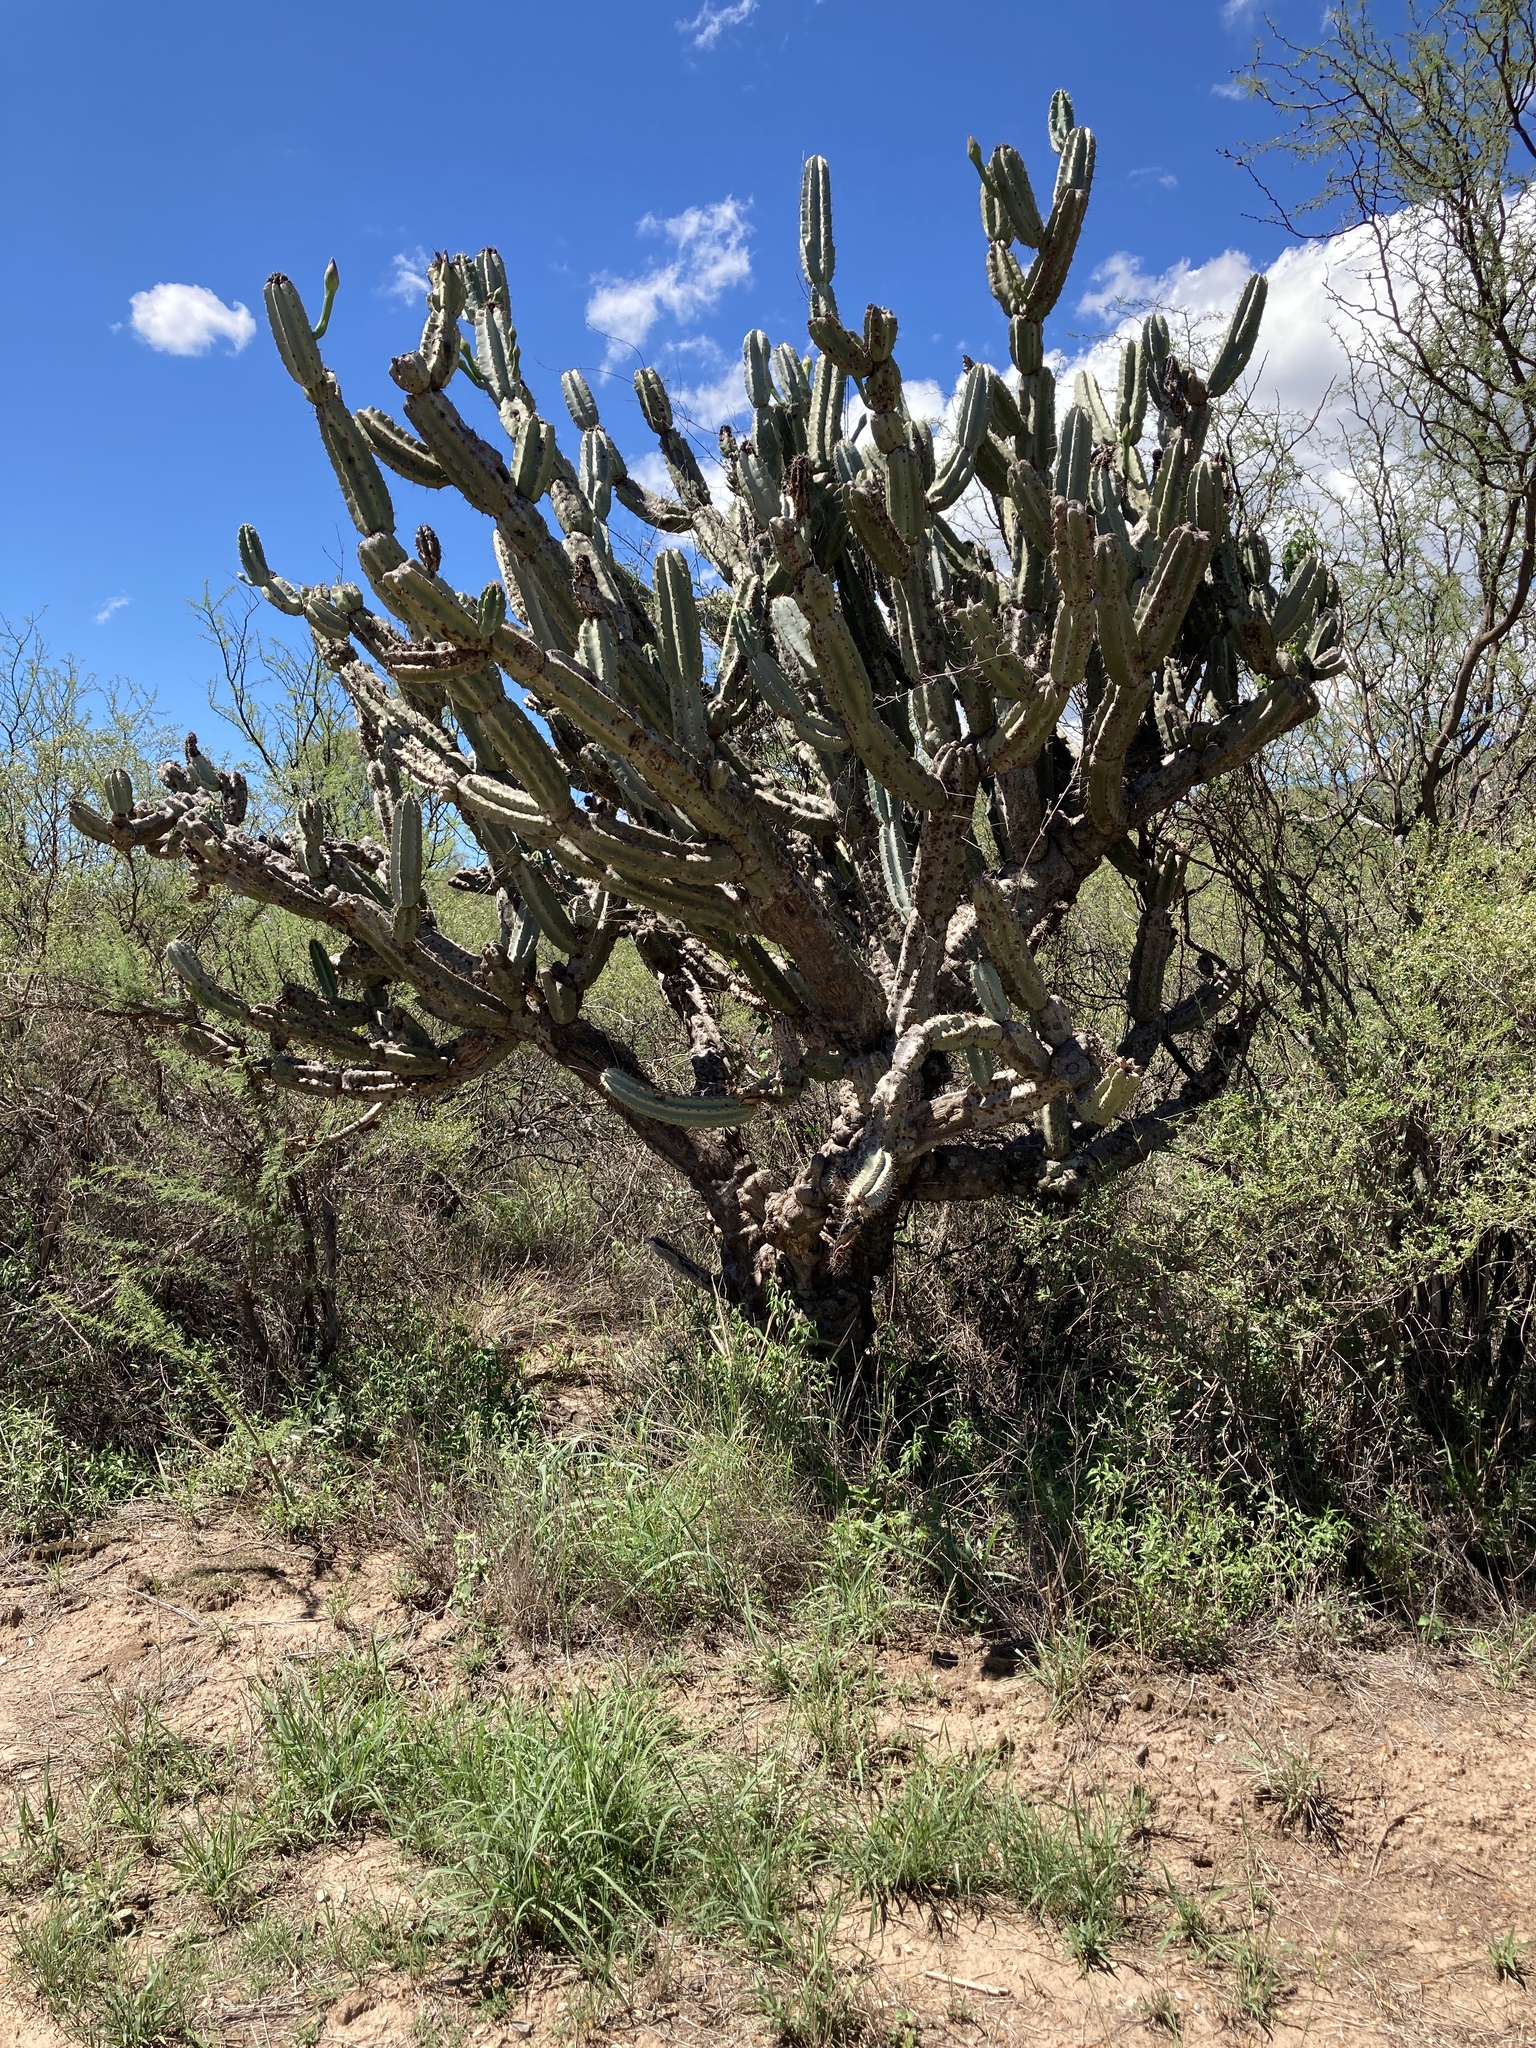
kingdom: Plantae
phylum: Tracheophyta
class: Magnoliopsida
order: Caryophyllales
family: Cactaceae
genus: Cereus
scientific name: Cereus hankeanus
